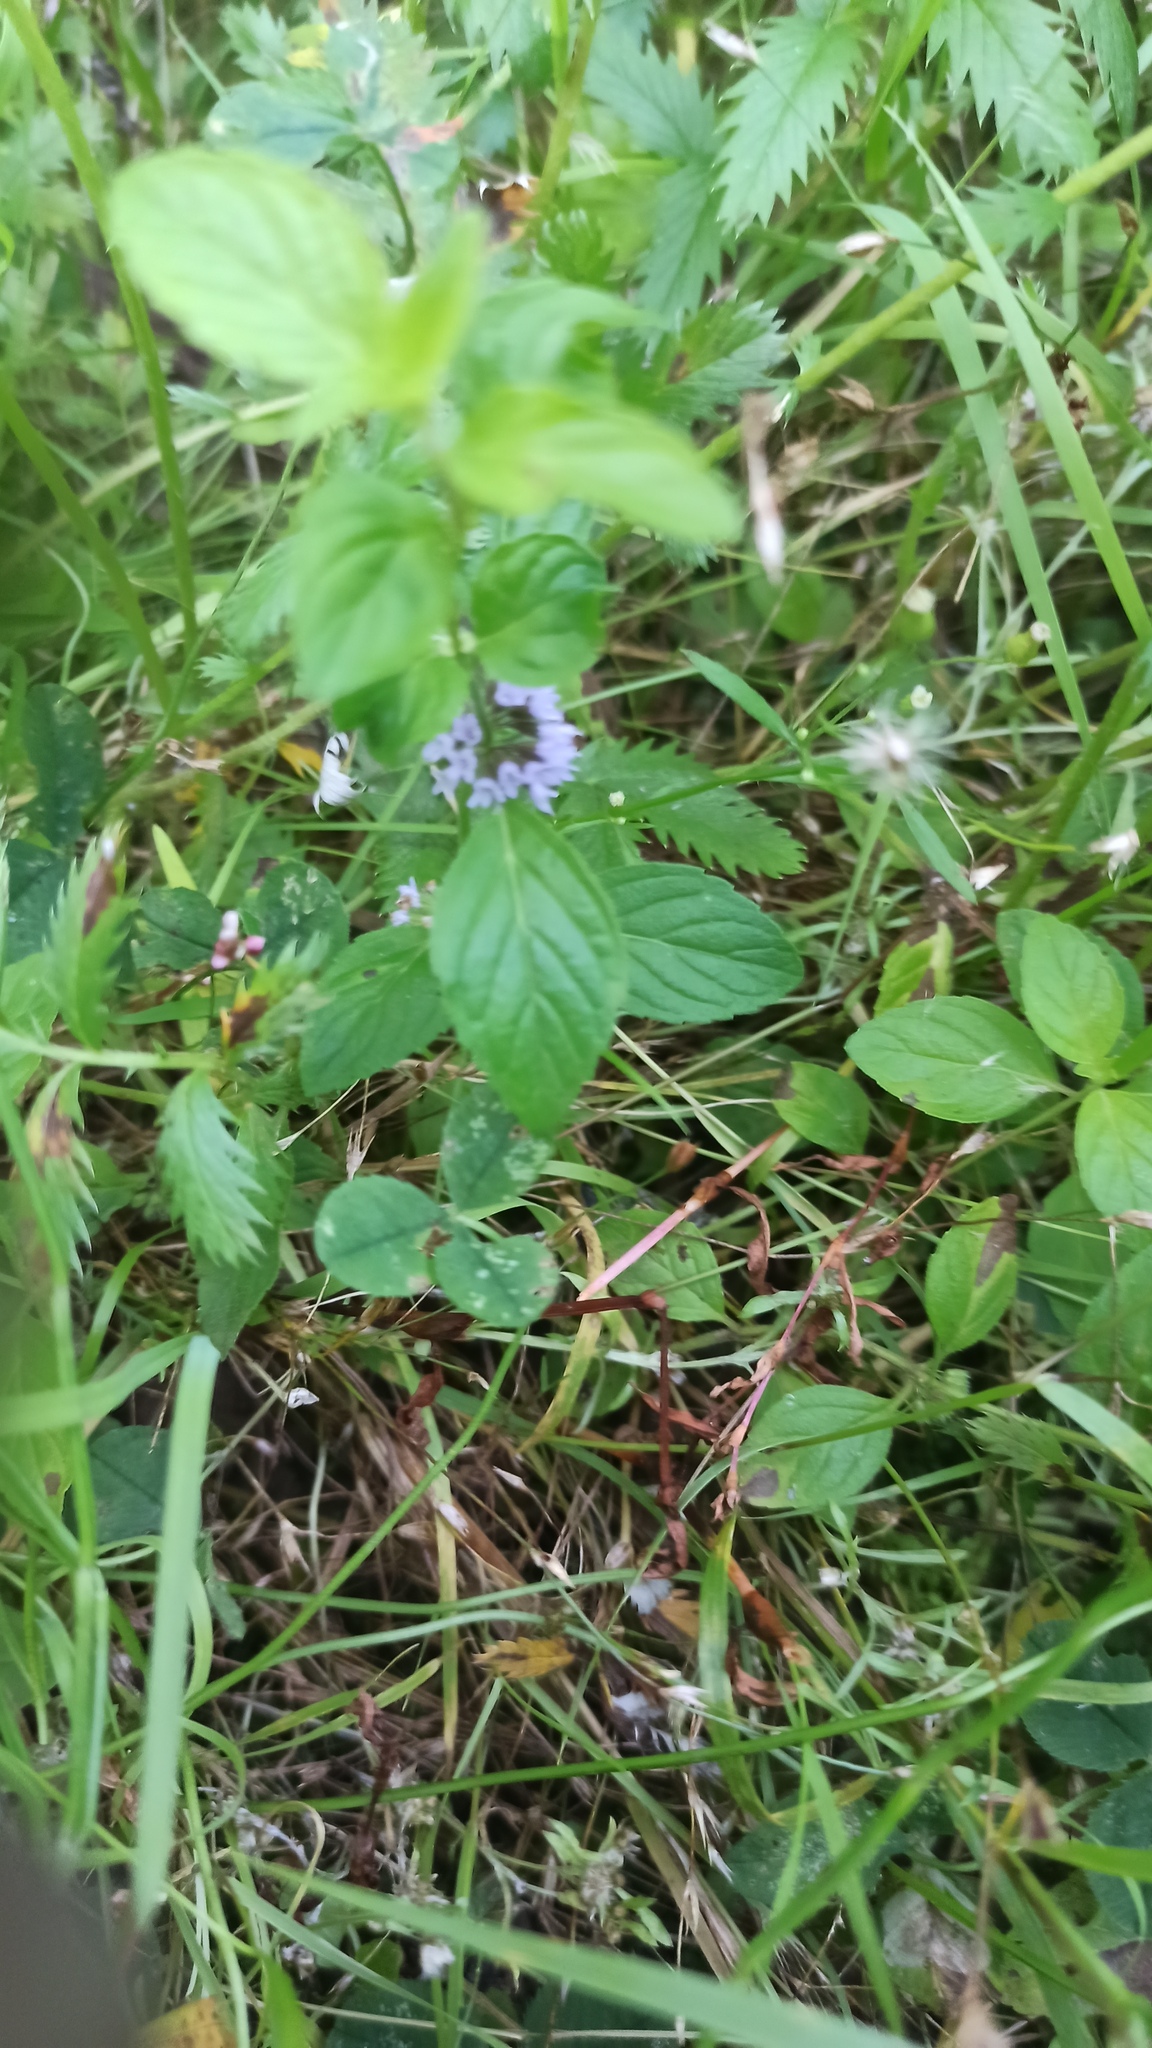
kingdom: Plantae
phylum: Tracheophyta
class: Magnoliopsida
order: Lamiales
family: Lamiaceae
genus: Mentha
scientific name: Mentha arvensis
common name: Corn mint
